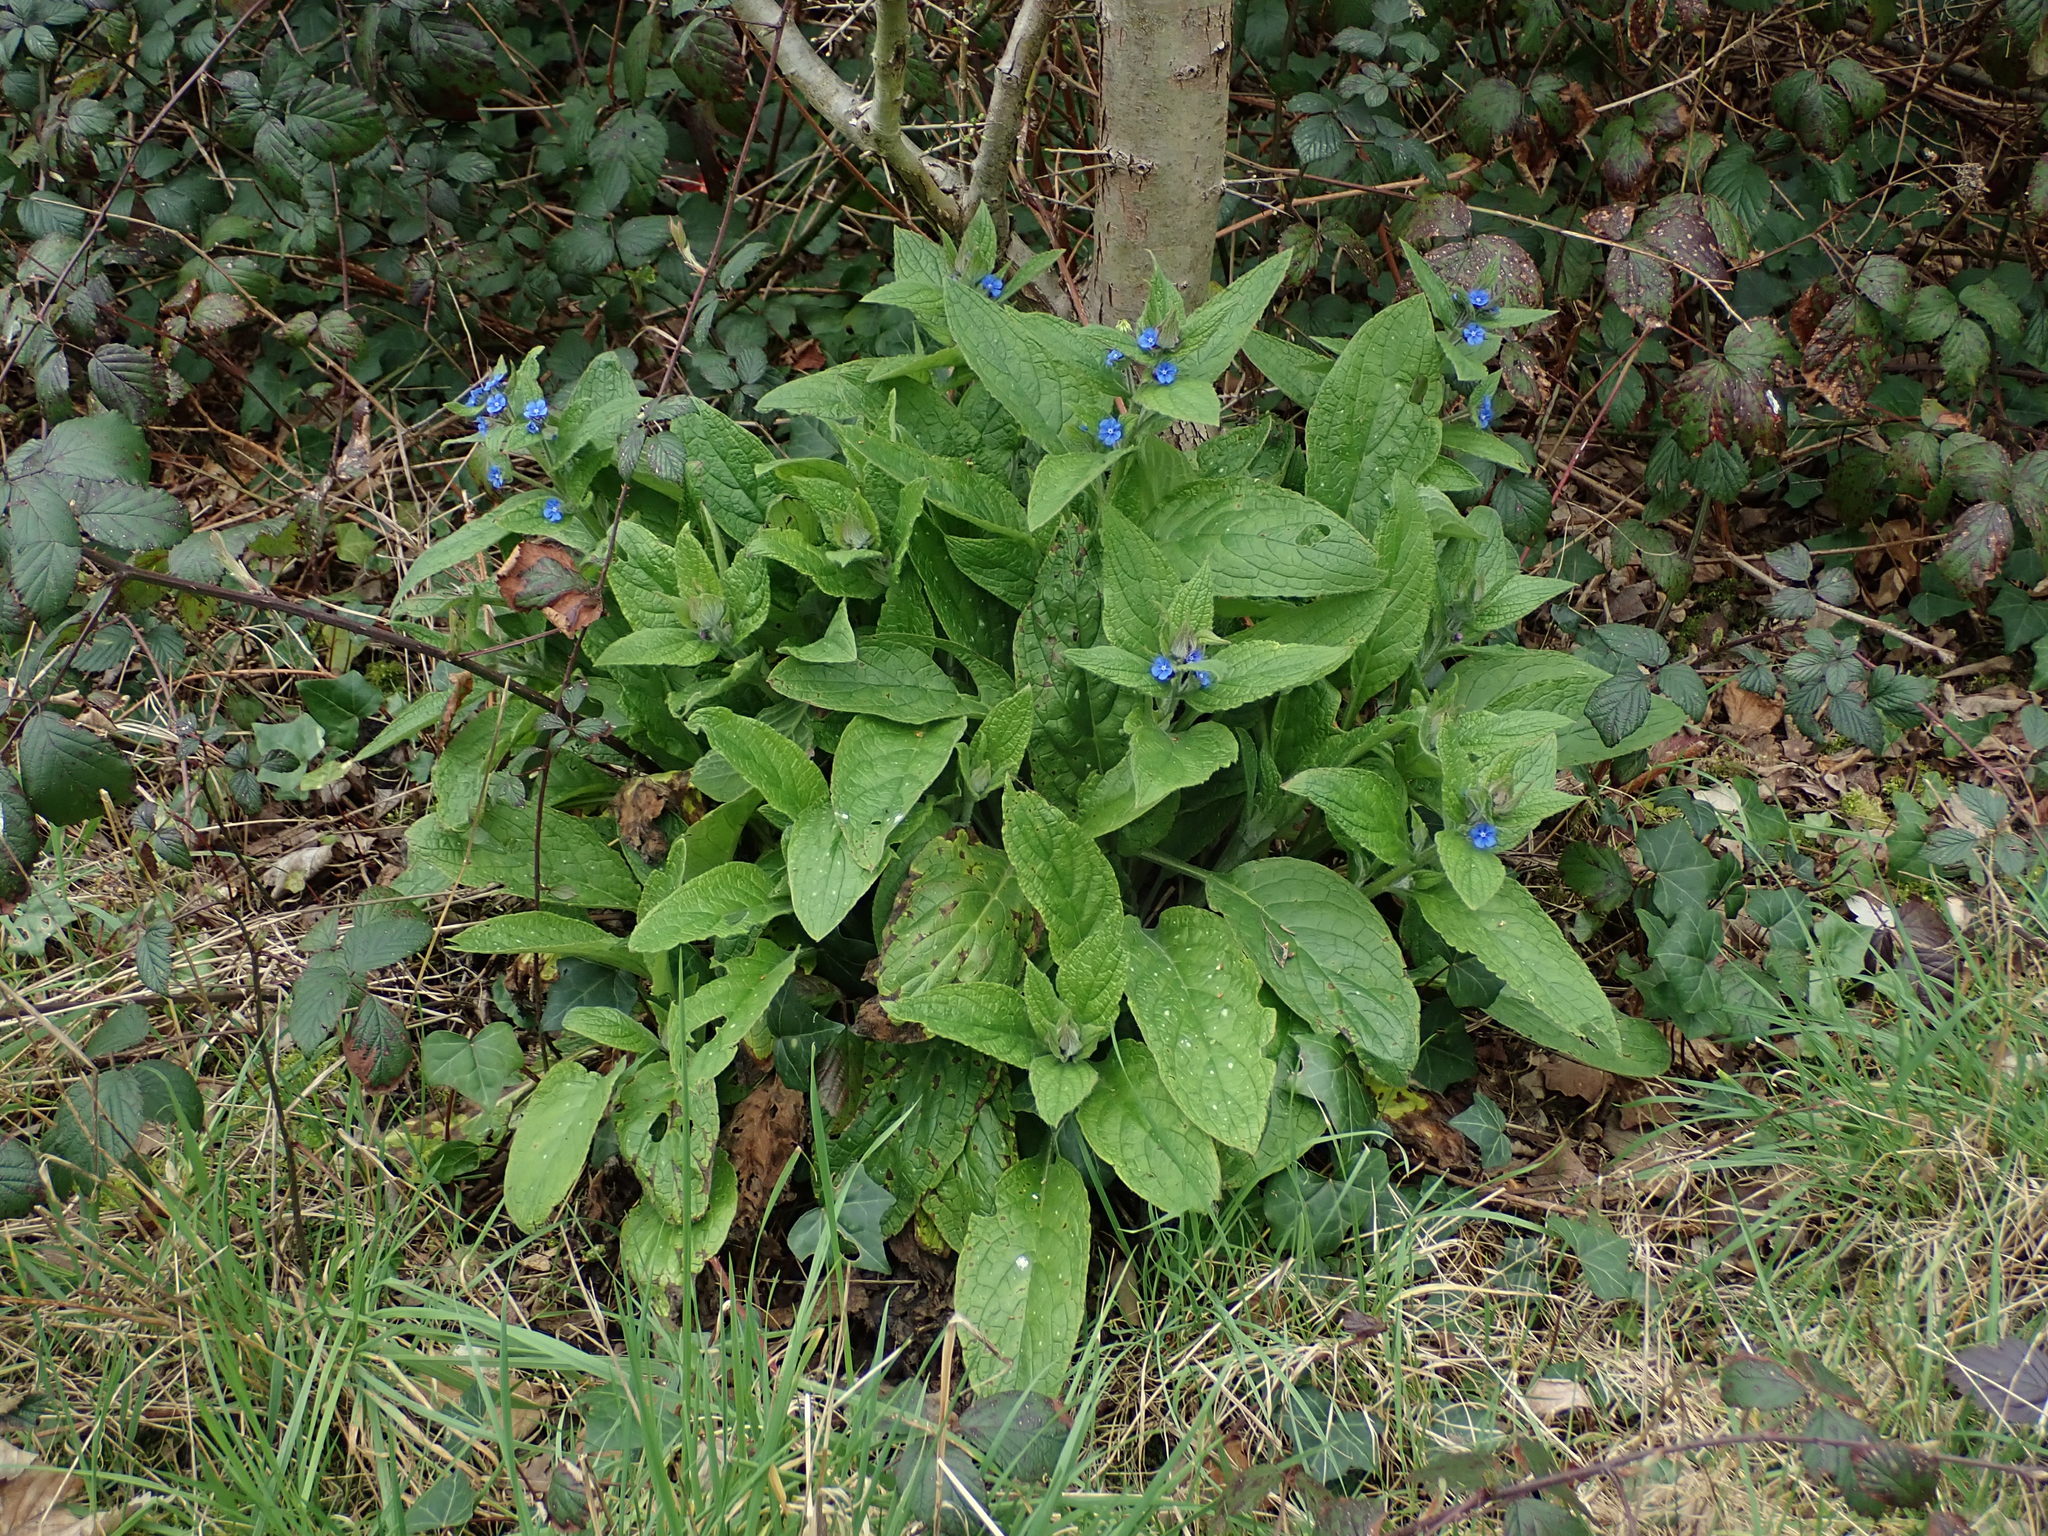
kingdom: Plantae
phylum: Tracheophyta
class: Magnoliopsida
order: Boraginales
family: Boraginaceae
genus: Pentaglottis
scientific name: Pentaglottis sempervirens
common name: Green alkanet
